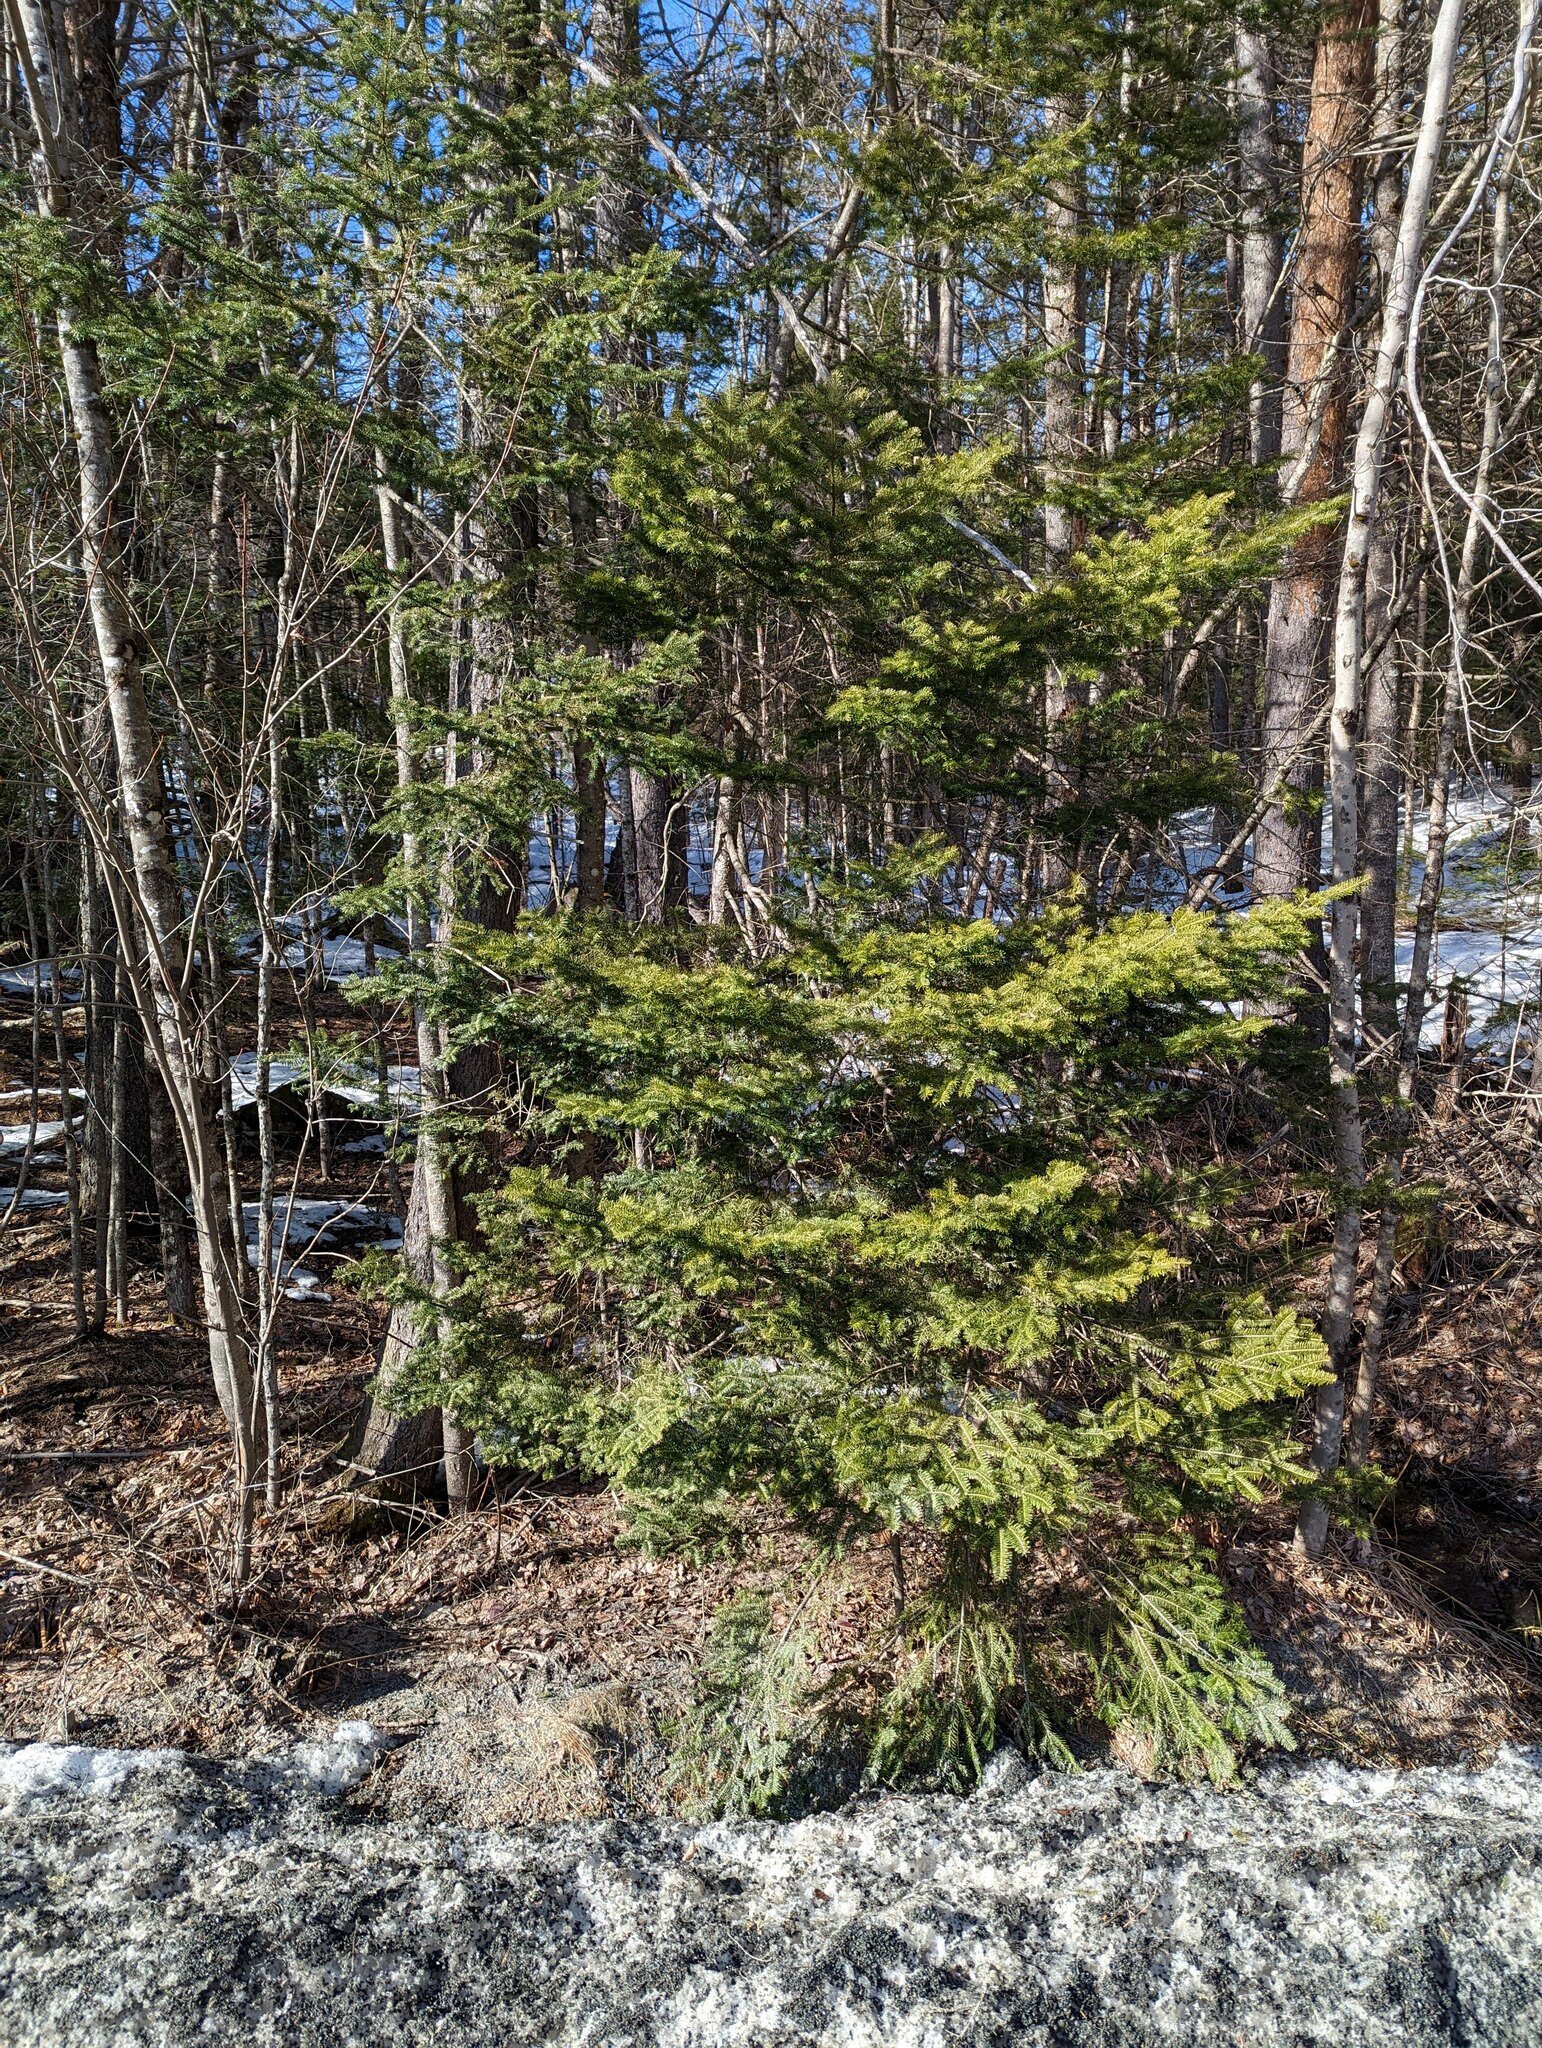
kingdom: Plantae
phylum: Tracheophyta
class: Pinopsida
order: Pinales
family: Pinaceae
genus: Abies
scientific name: Abies balsamea
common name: Balsam fir
